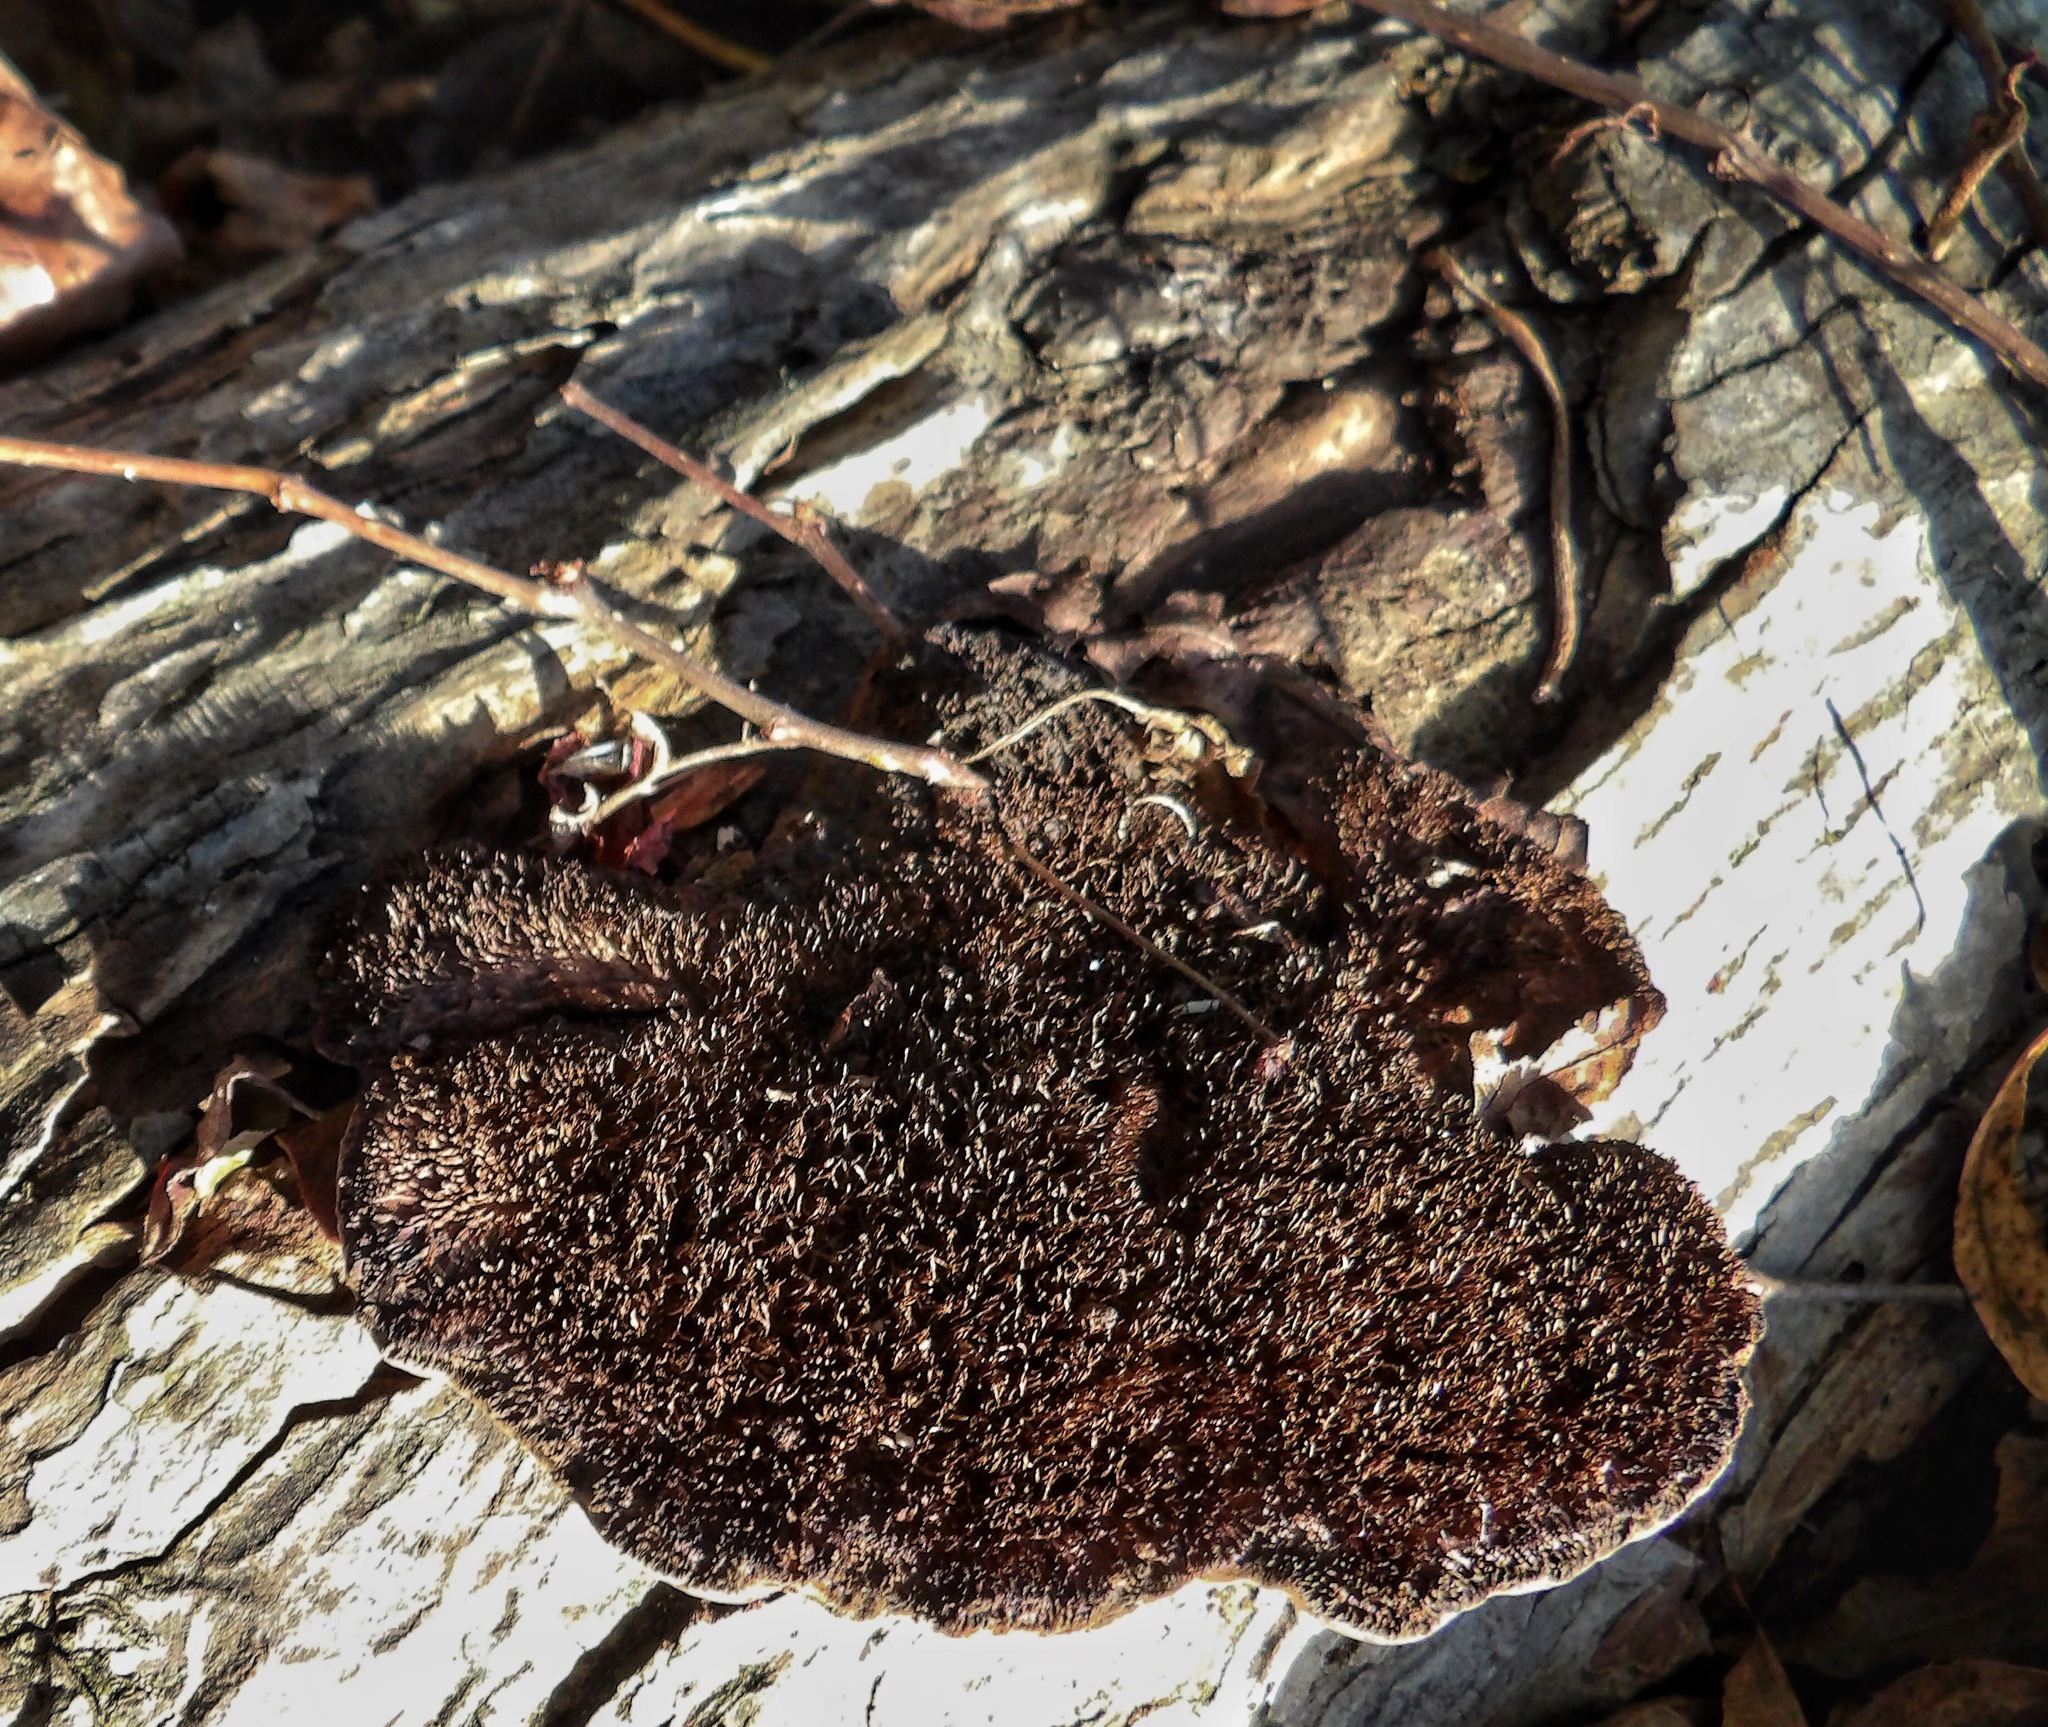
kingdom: Fungi
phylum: Basidiomycota
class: Agaricomycetes
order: Polyporales
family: Cerrenaceae
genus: Cerrena
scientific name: Cerrena hydnoides
